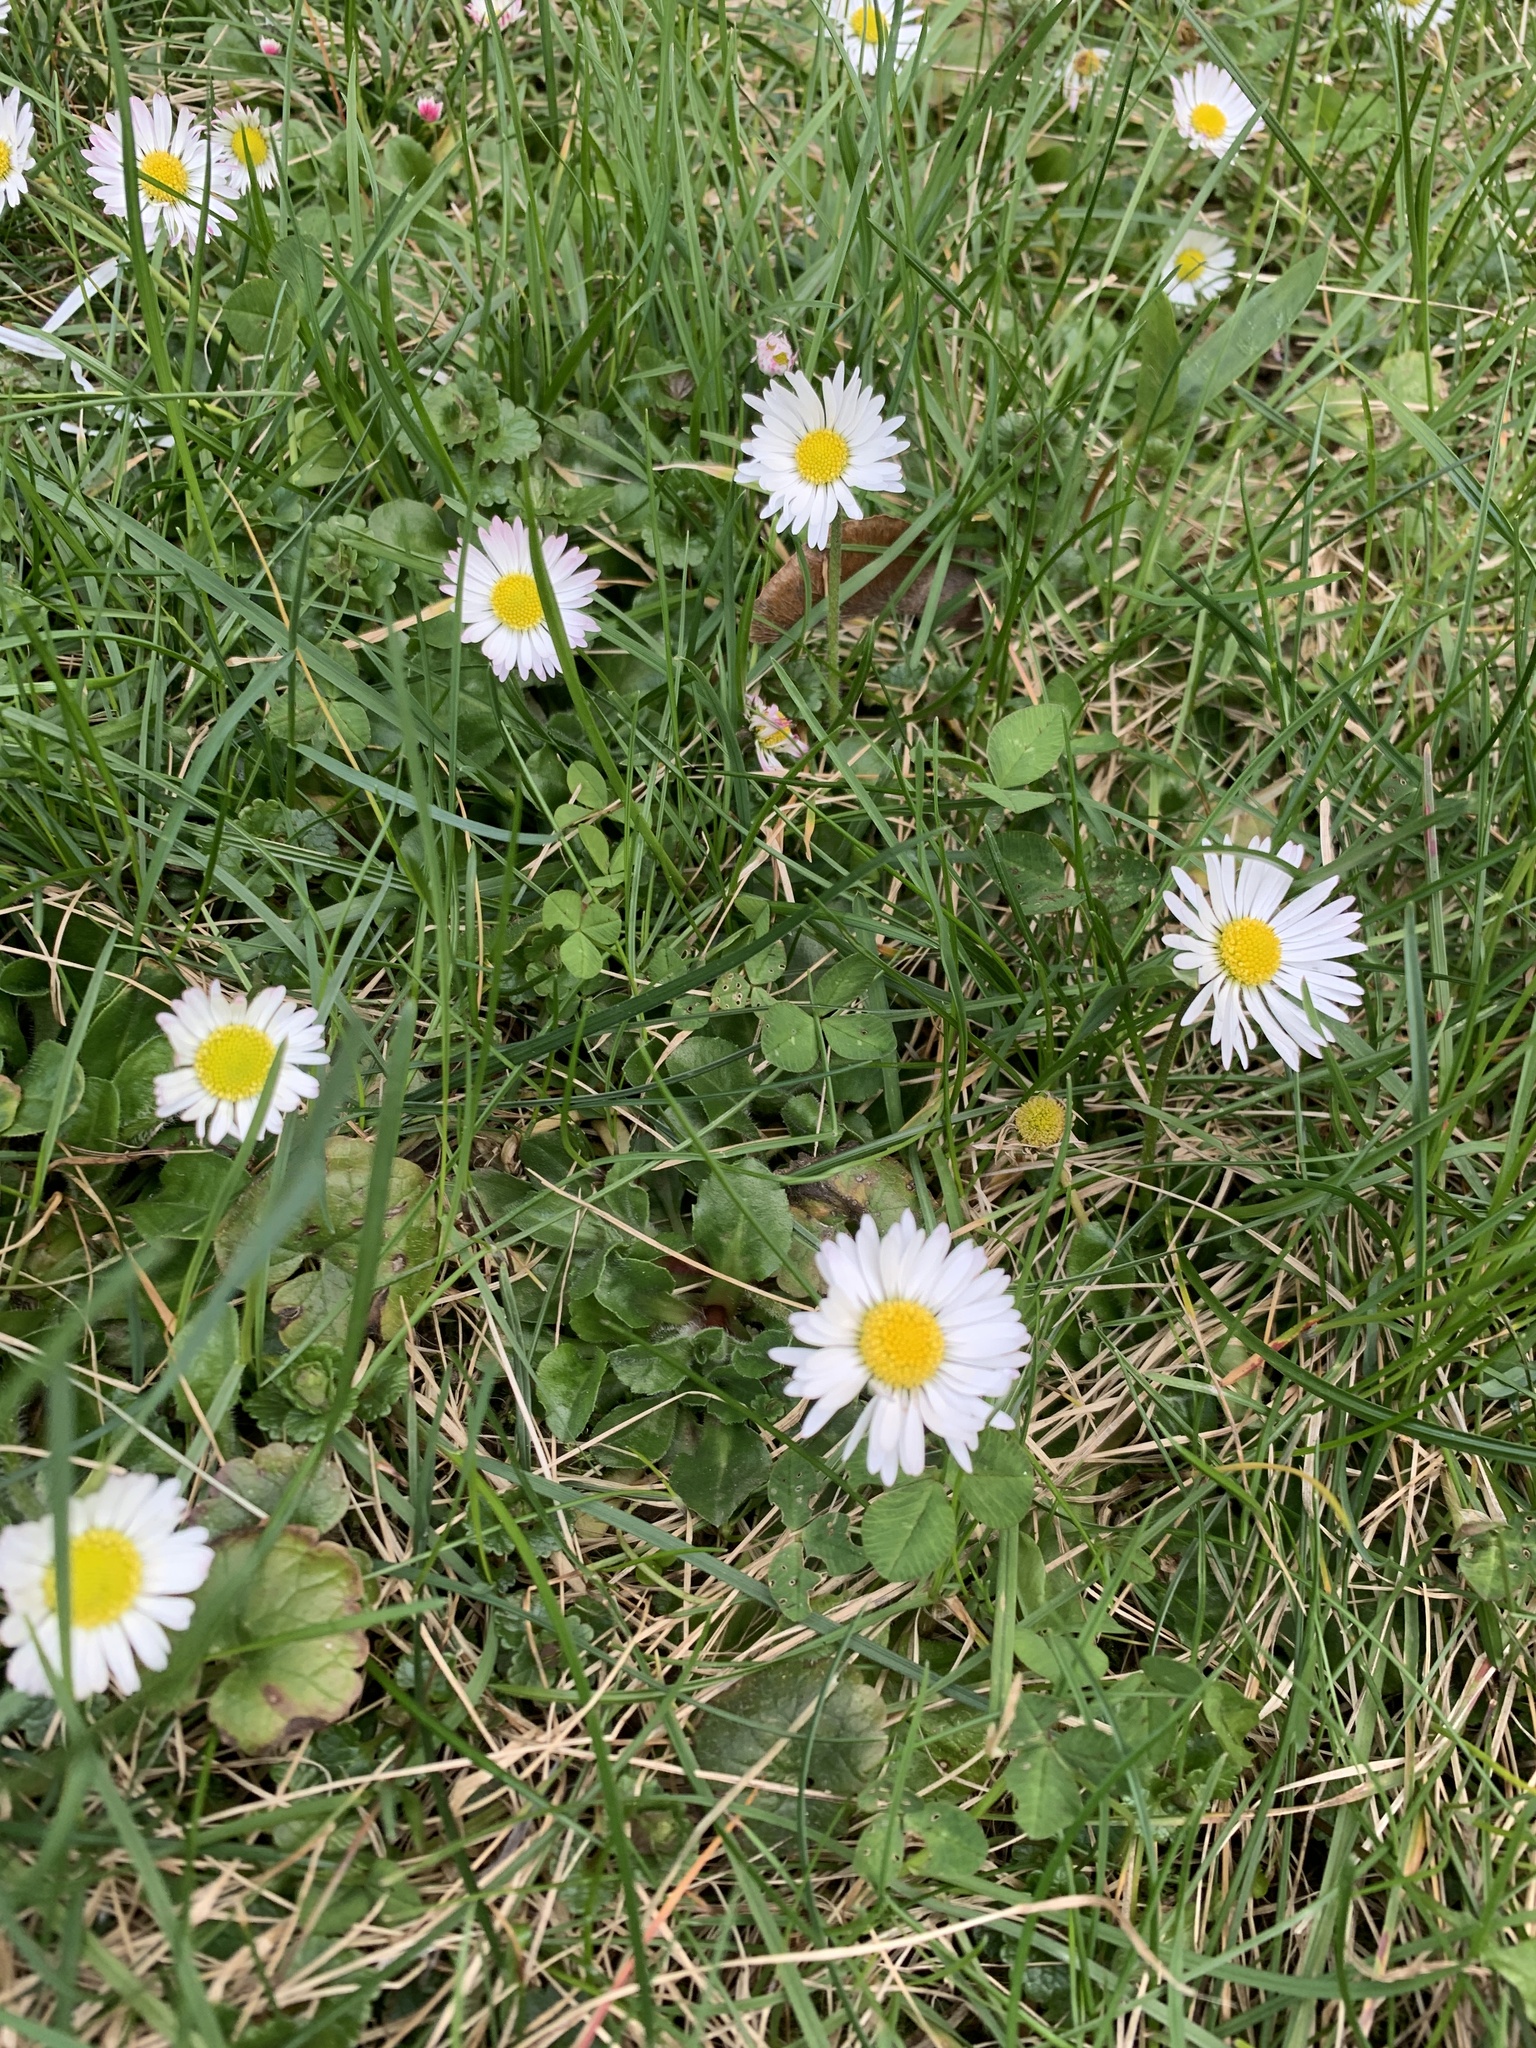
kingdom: Plantae
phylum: Tracheophyta
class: Magnoliopsida
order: Asterales
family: Asteraceae
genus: Bellis
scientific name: Bellis perennis
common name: Lawndaisy
